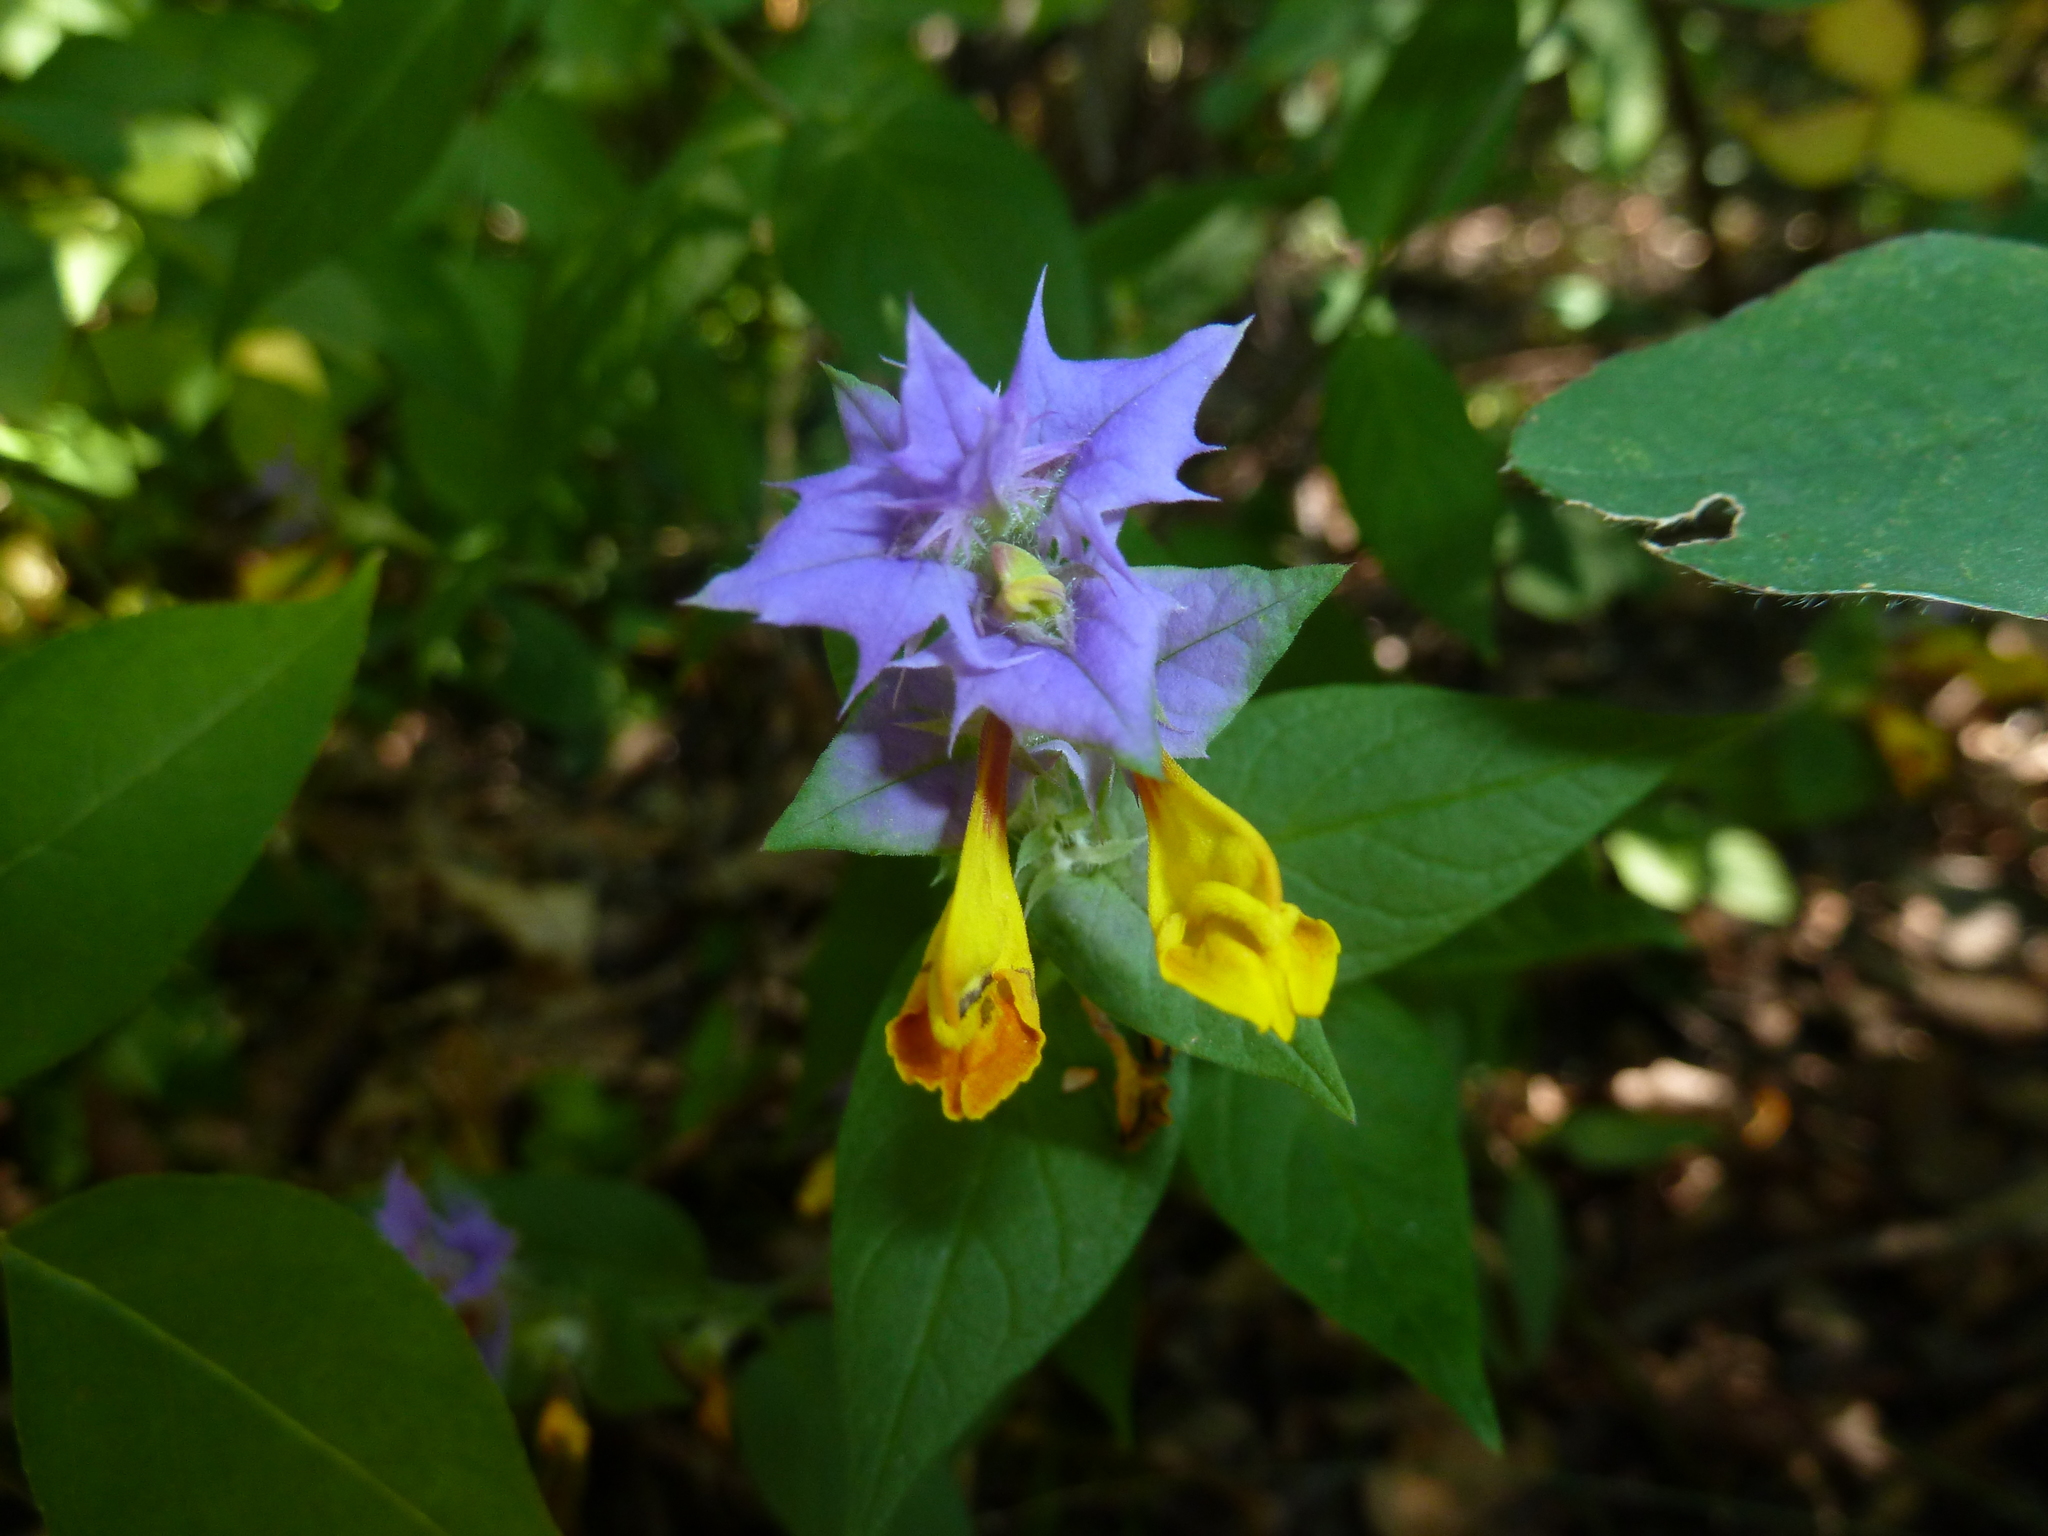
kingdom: Plantae
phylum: Tracheophyta
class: Magnoliopsida
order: Lamiales
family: Orobanchaceae
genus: Melampyrum
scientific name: Melampyrum nemorosum
